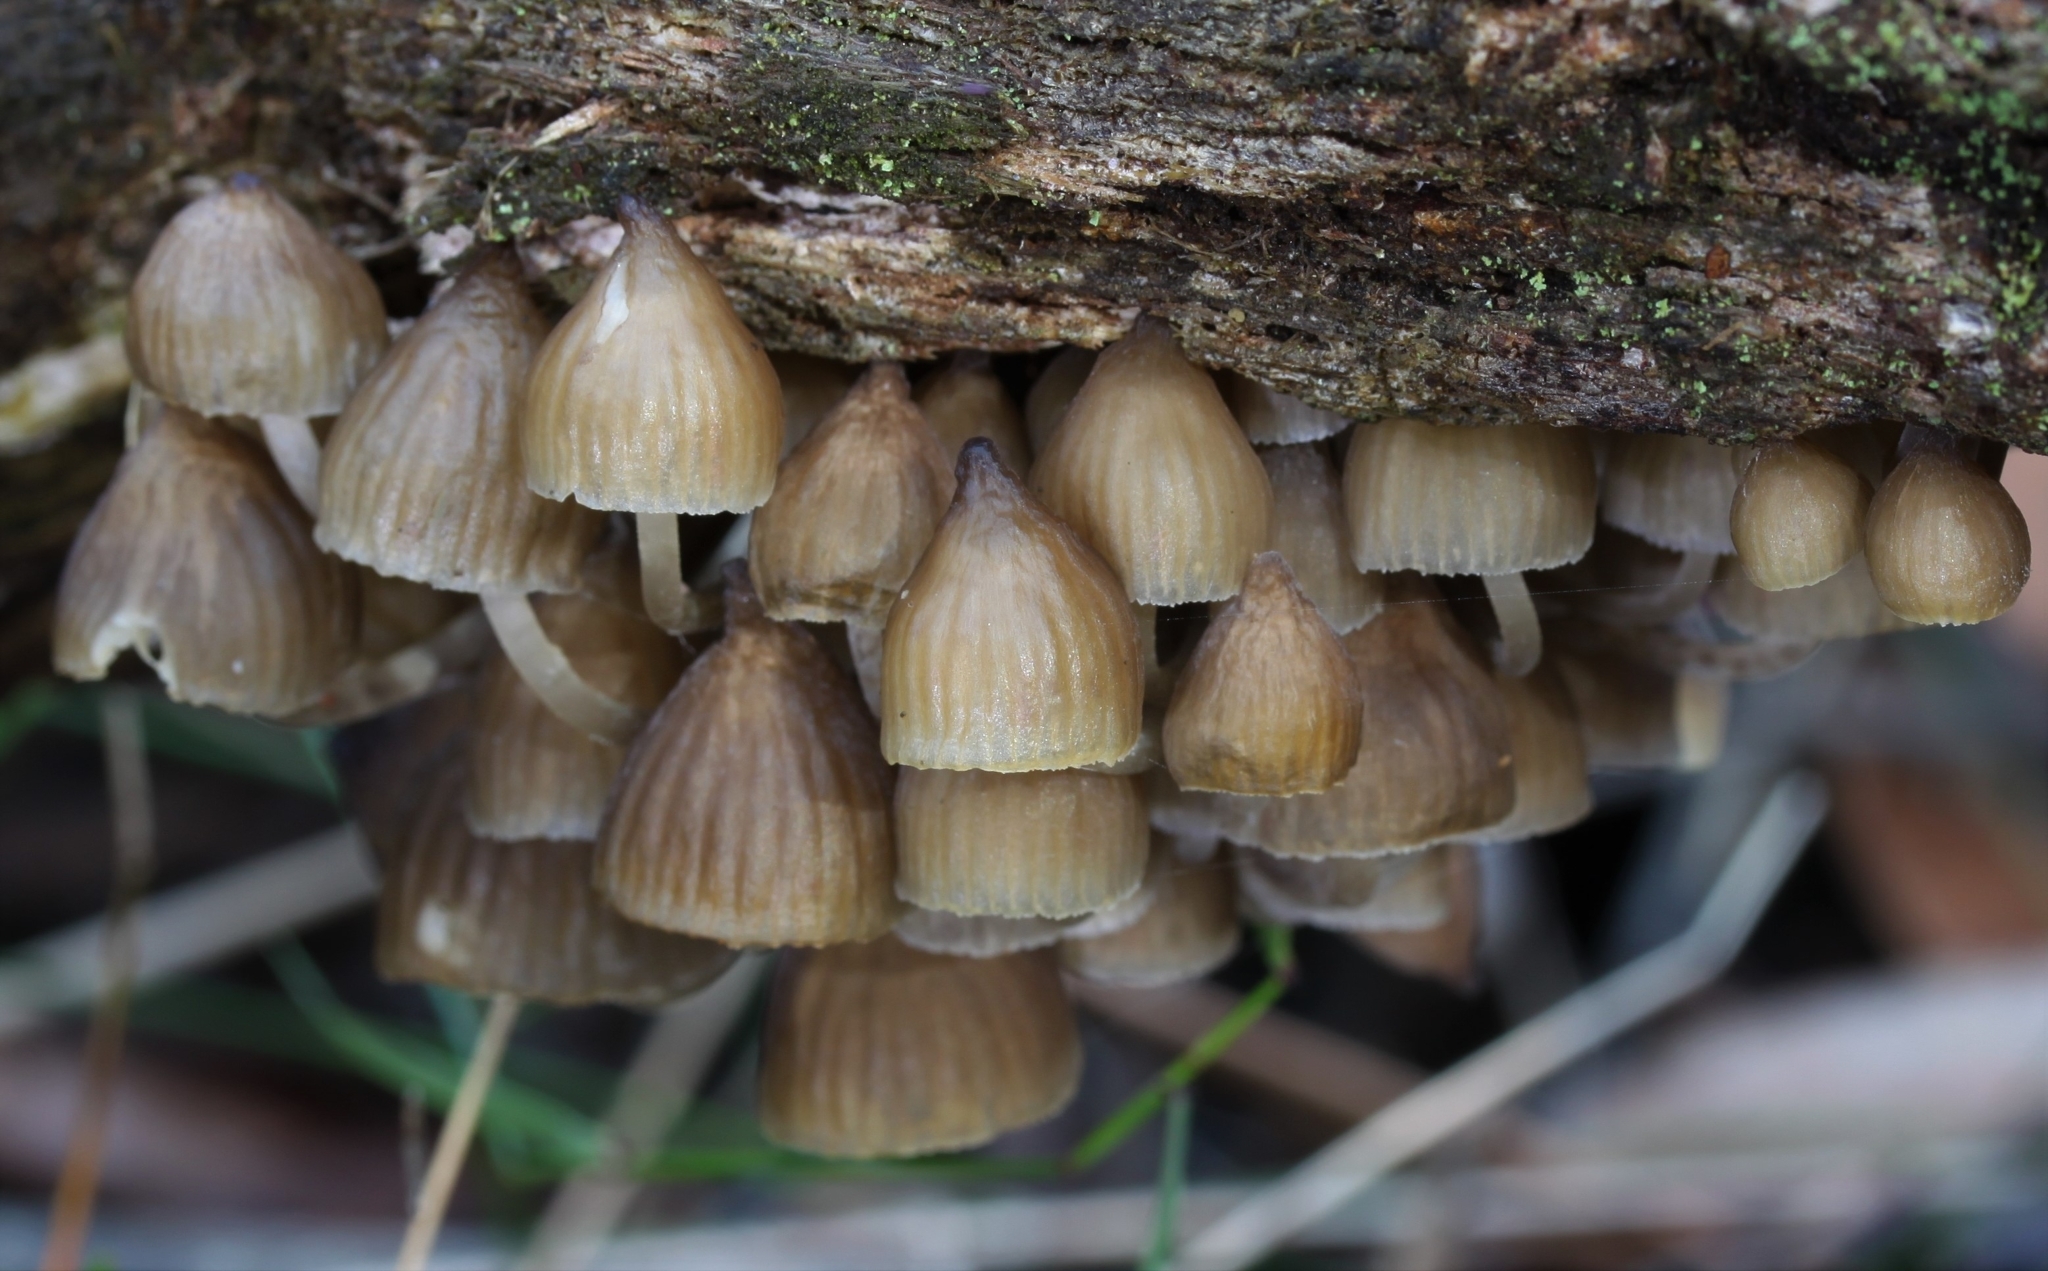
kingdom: Fungi
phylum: Basidiomycota
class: Agaricomycetes
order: Agaricales
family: Mycenaceae
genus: Mycena
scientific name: Mycena subgalericulata
